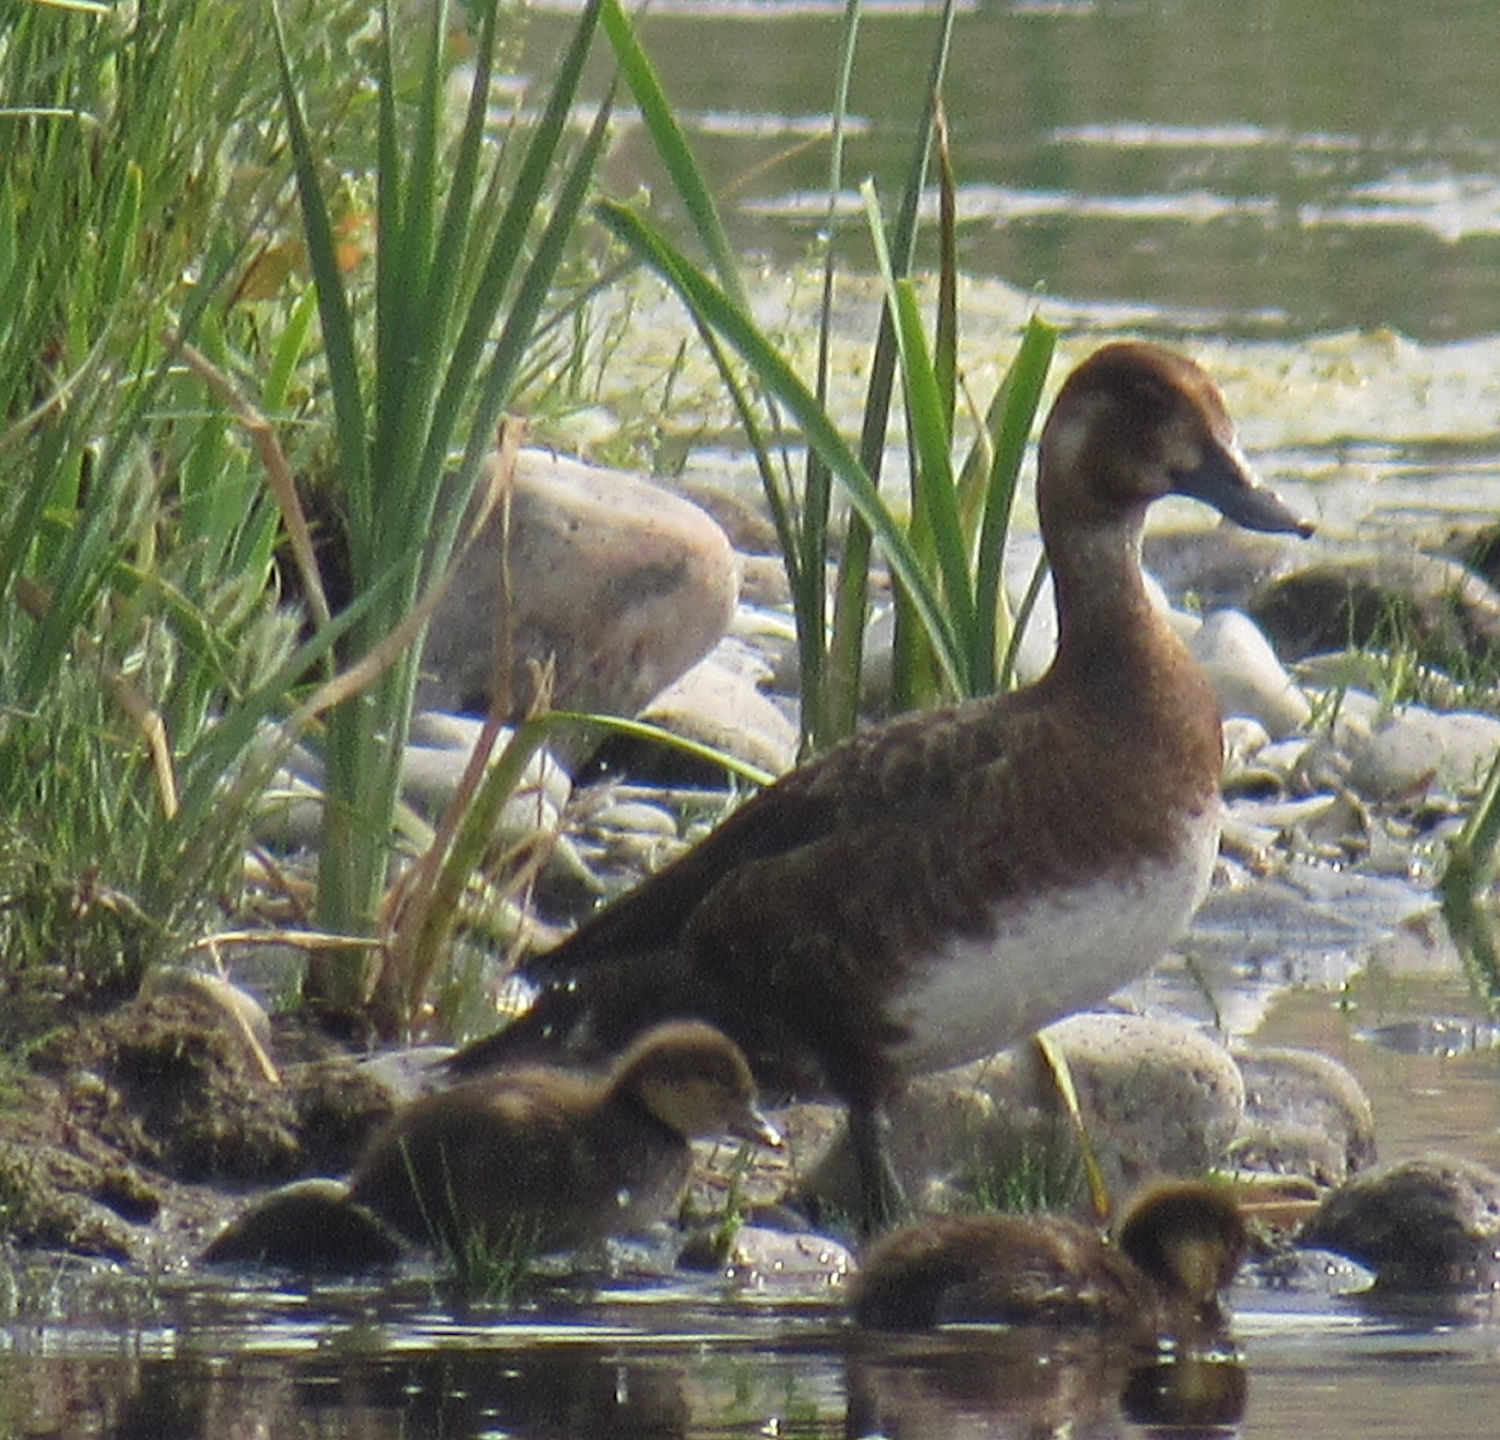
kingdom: Animalia
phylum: Chordata
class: Aves
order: Anseriformes
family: Anatidae
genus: Aythya
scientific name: Aythya affinis
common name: Lesser scaup
